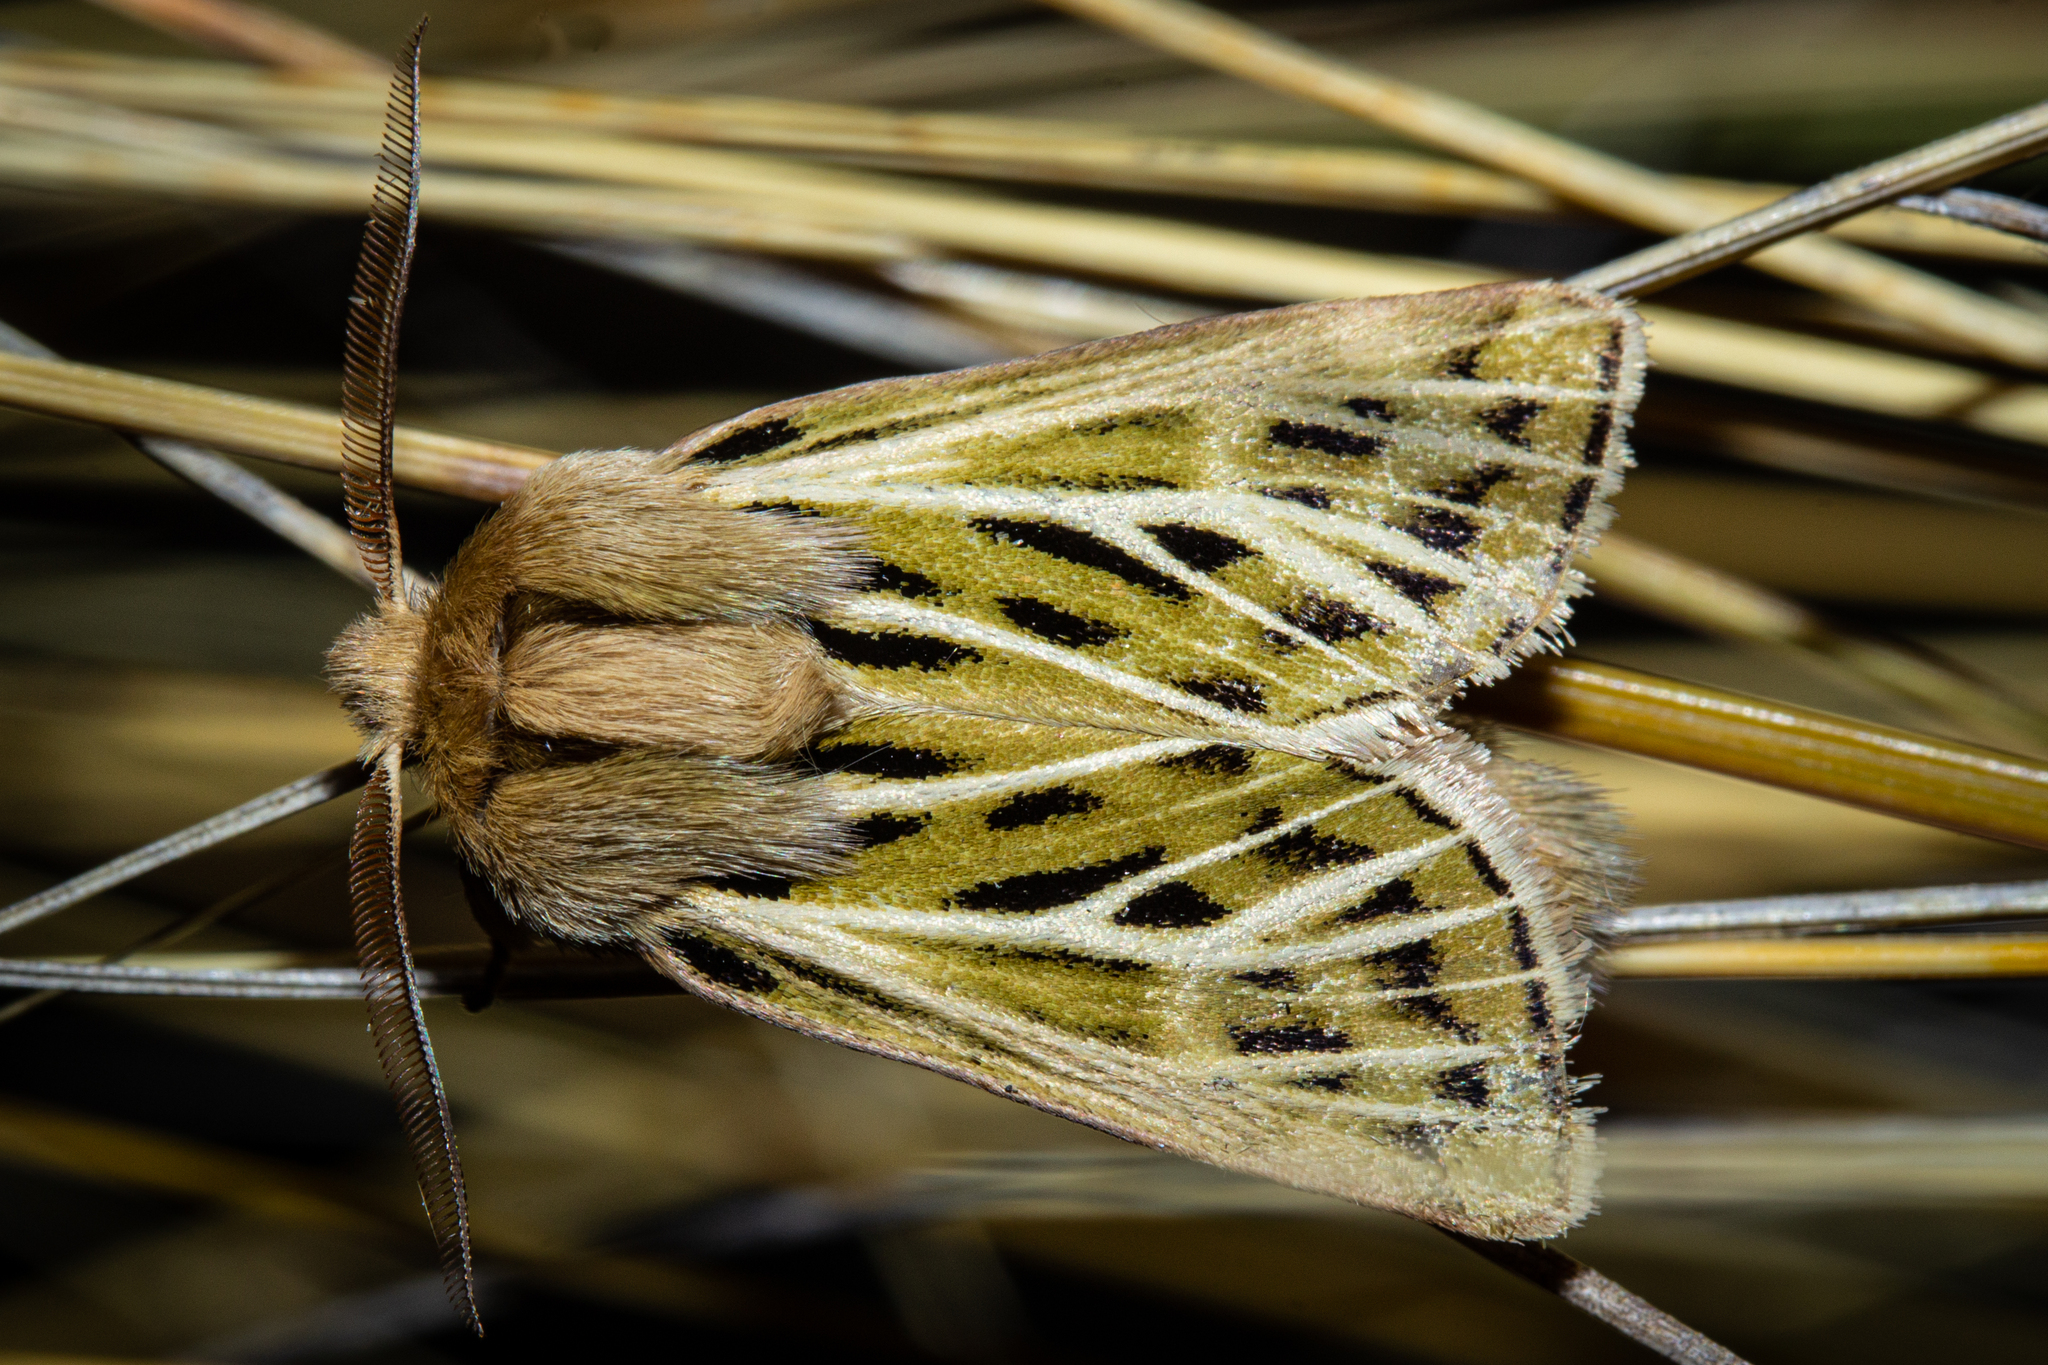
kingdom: Animalia
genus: Nivetica
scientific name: Nivetica
